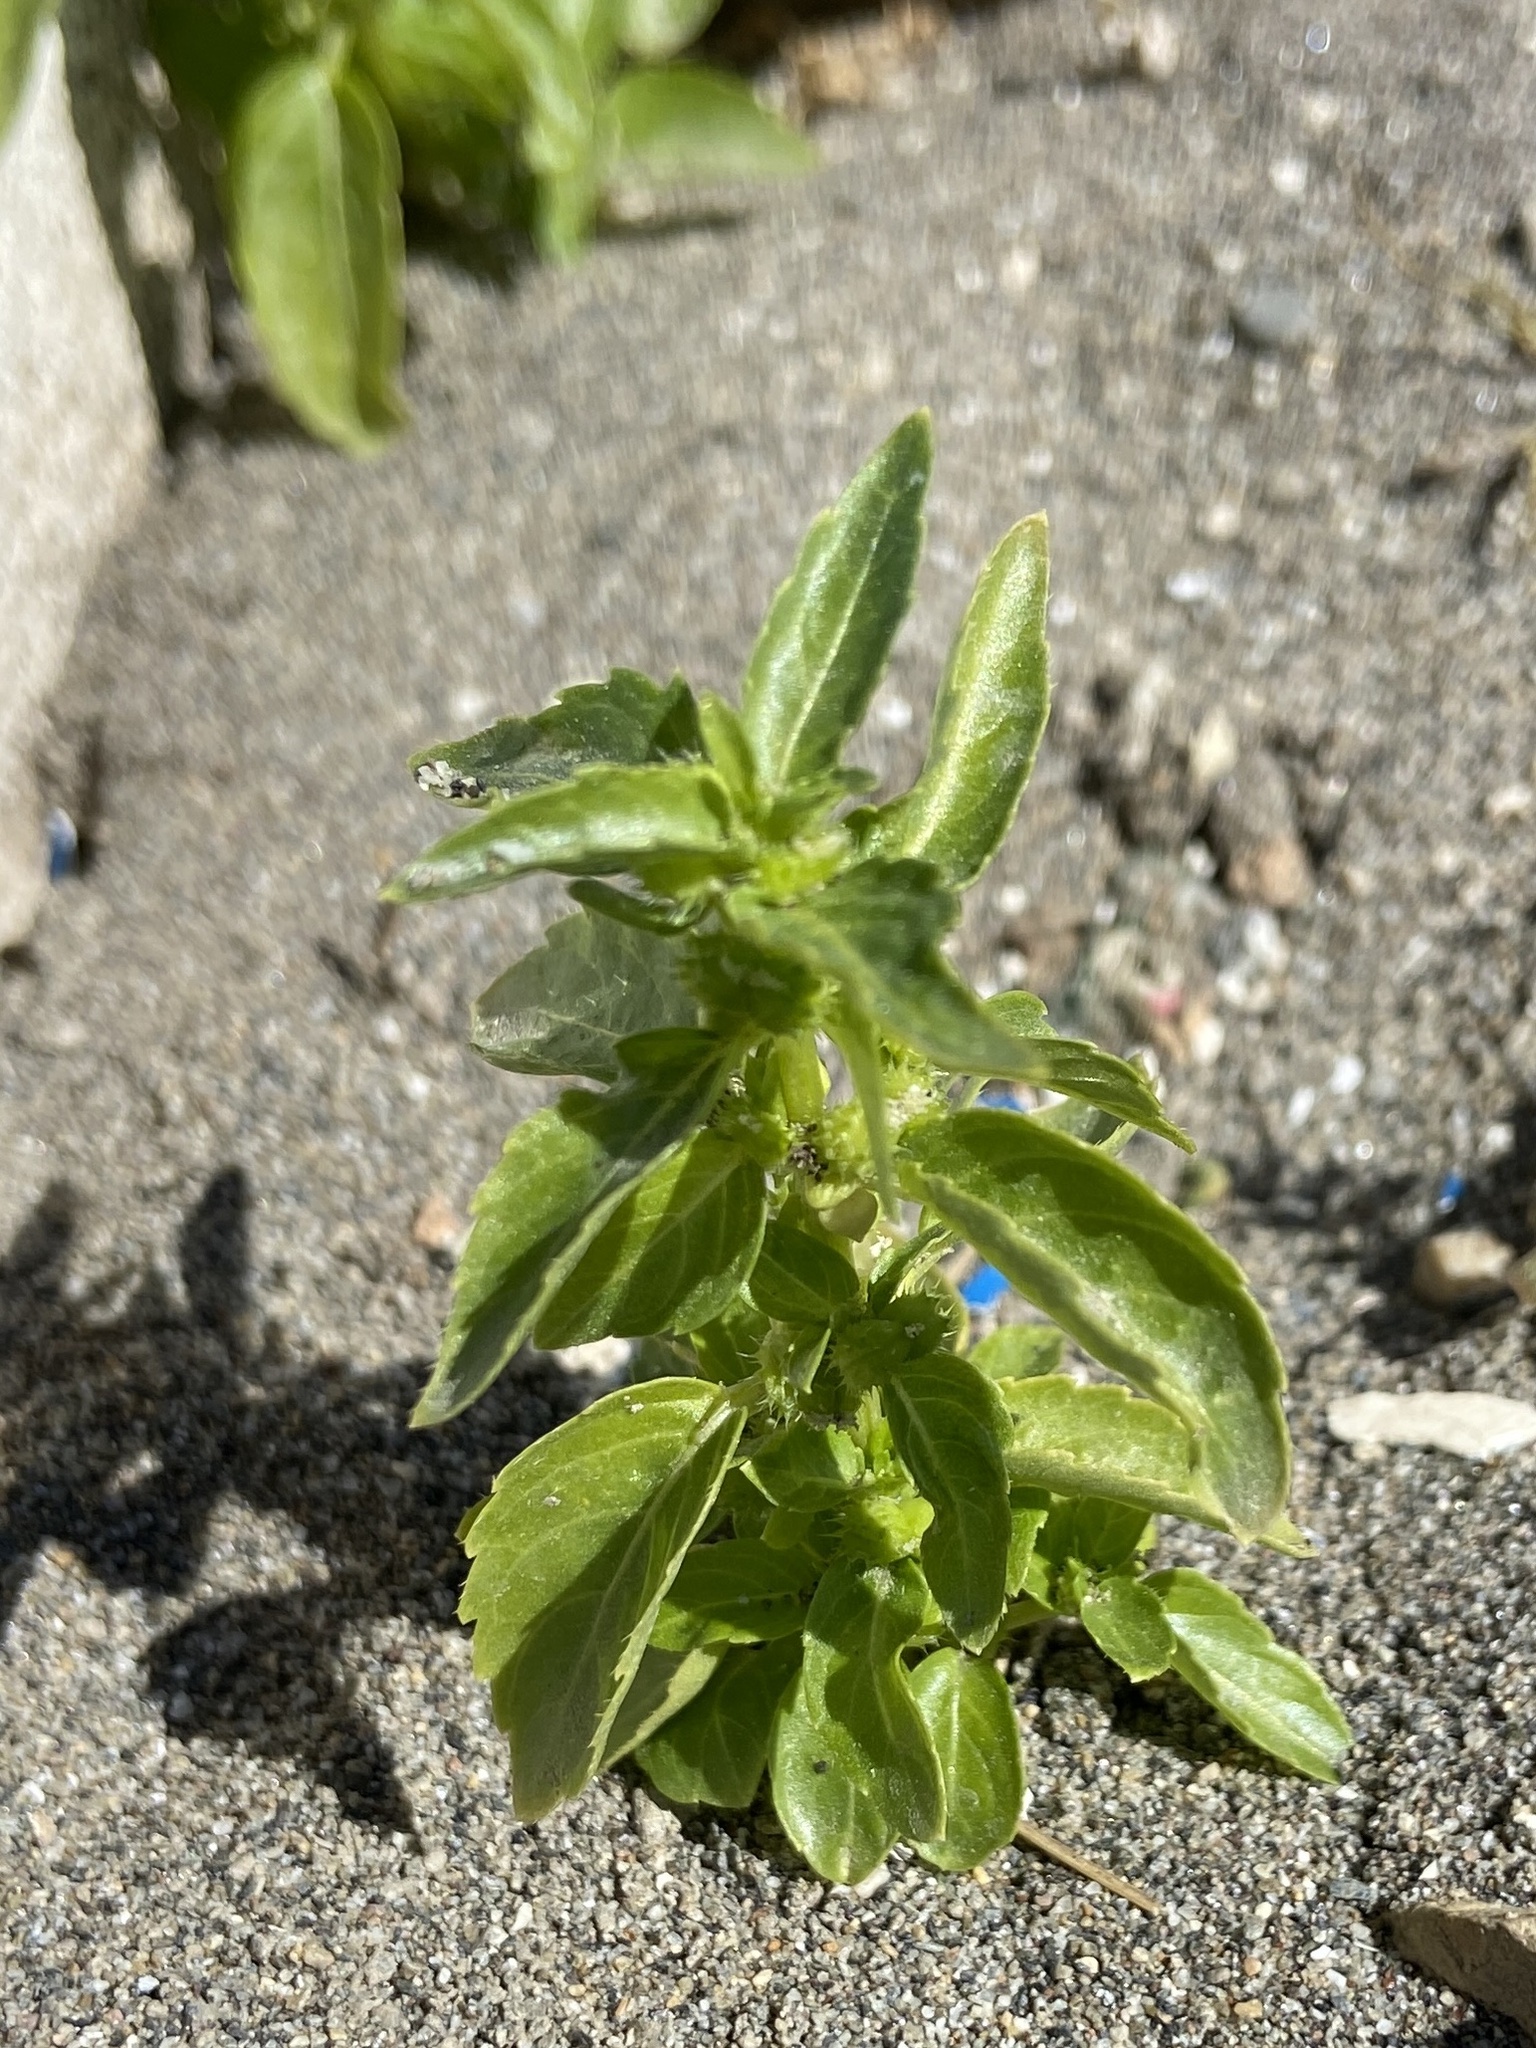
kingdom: Plantae
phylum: Tracheophyta
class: Magnoliopsida
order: Malpighiales
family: Euphorbiaceae
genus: Mercurialis
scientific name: Mercurialis annua
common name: Annual mercury
